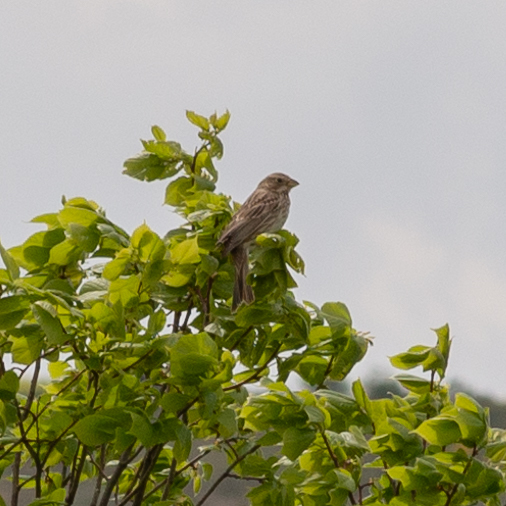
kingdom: Animalia
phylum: Chordata
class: Aves
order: Passeriformes
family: Emberizidae
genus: Emberiza
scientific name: Emberiza calandra
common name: Corn bunting
